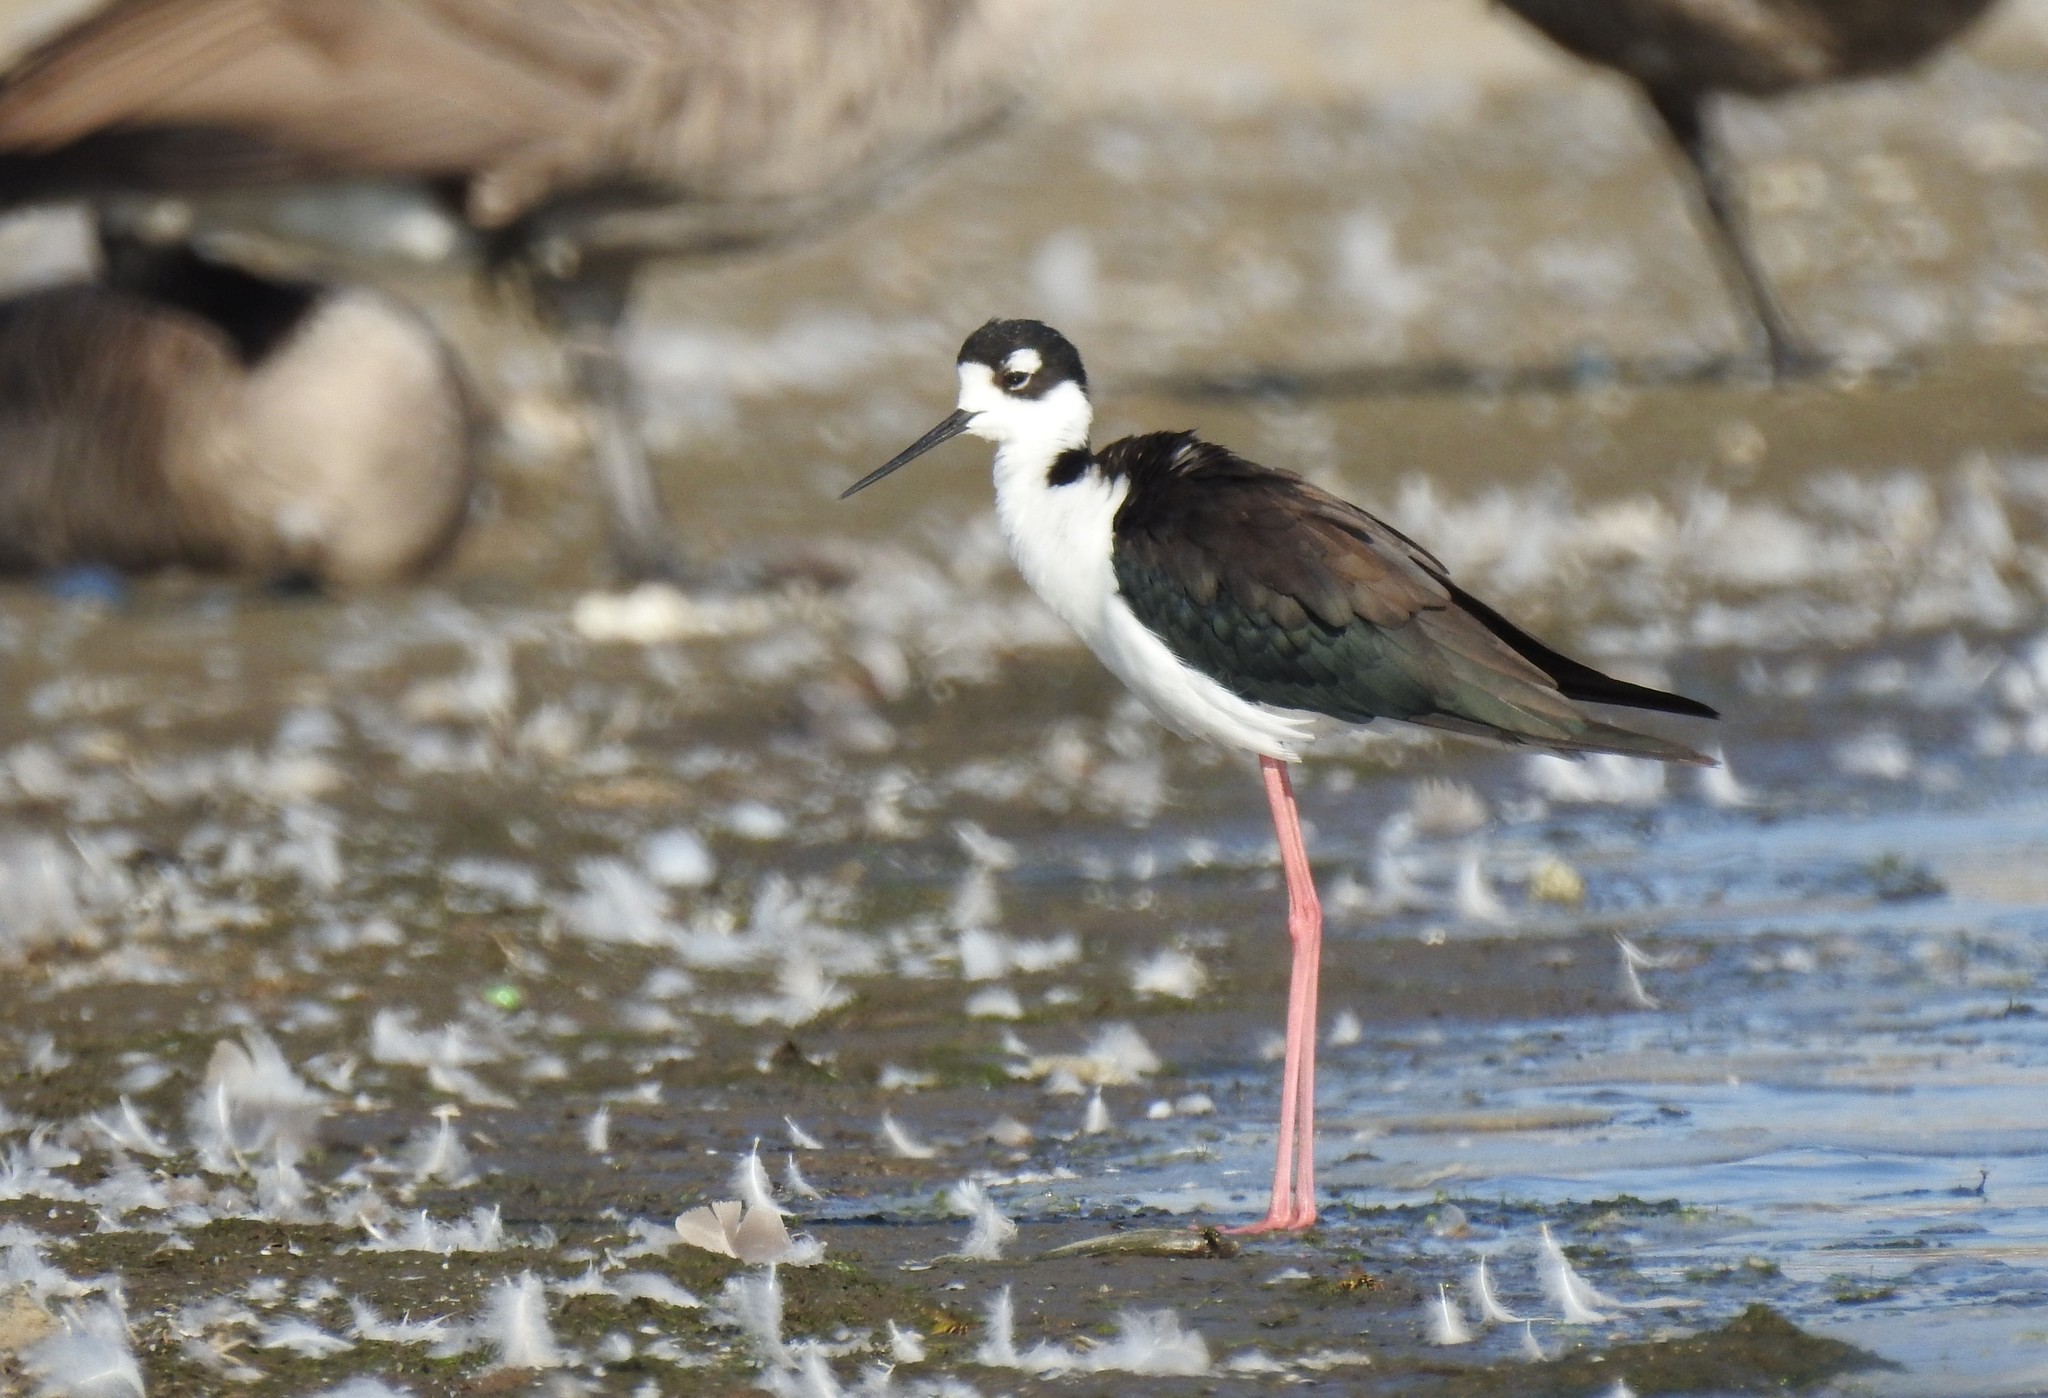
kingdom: Animalia
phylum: Chordata
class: Aves
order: Charadriiformes
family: Recurvirostridae
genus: Himantopus
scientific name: Himantopus mexicanus
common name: Black-necked stilt
